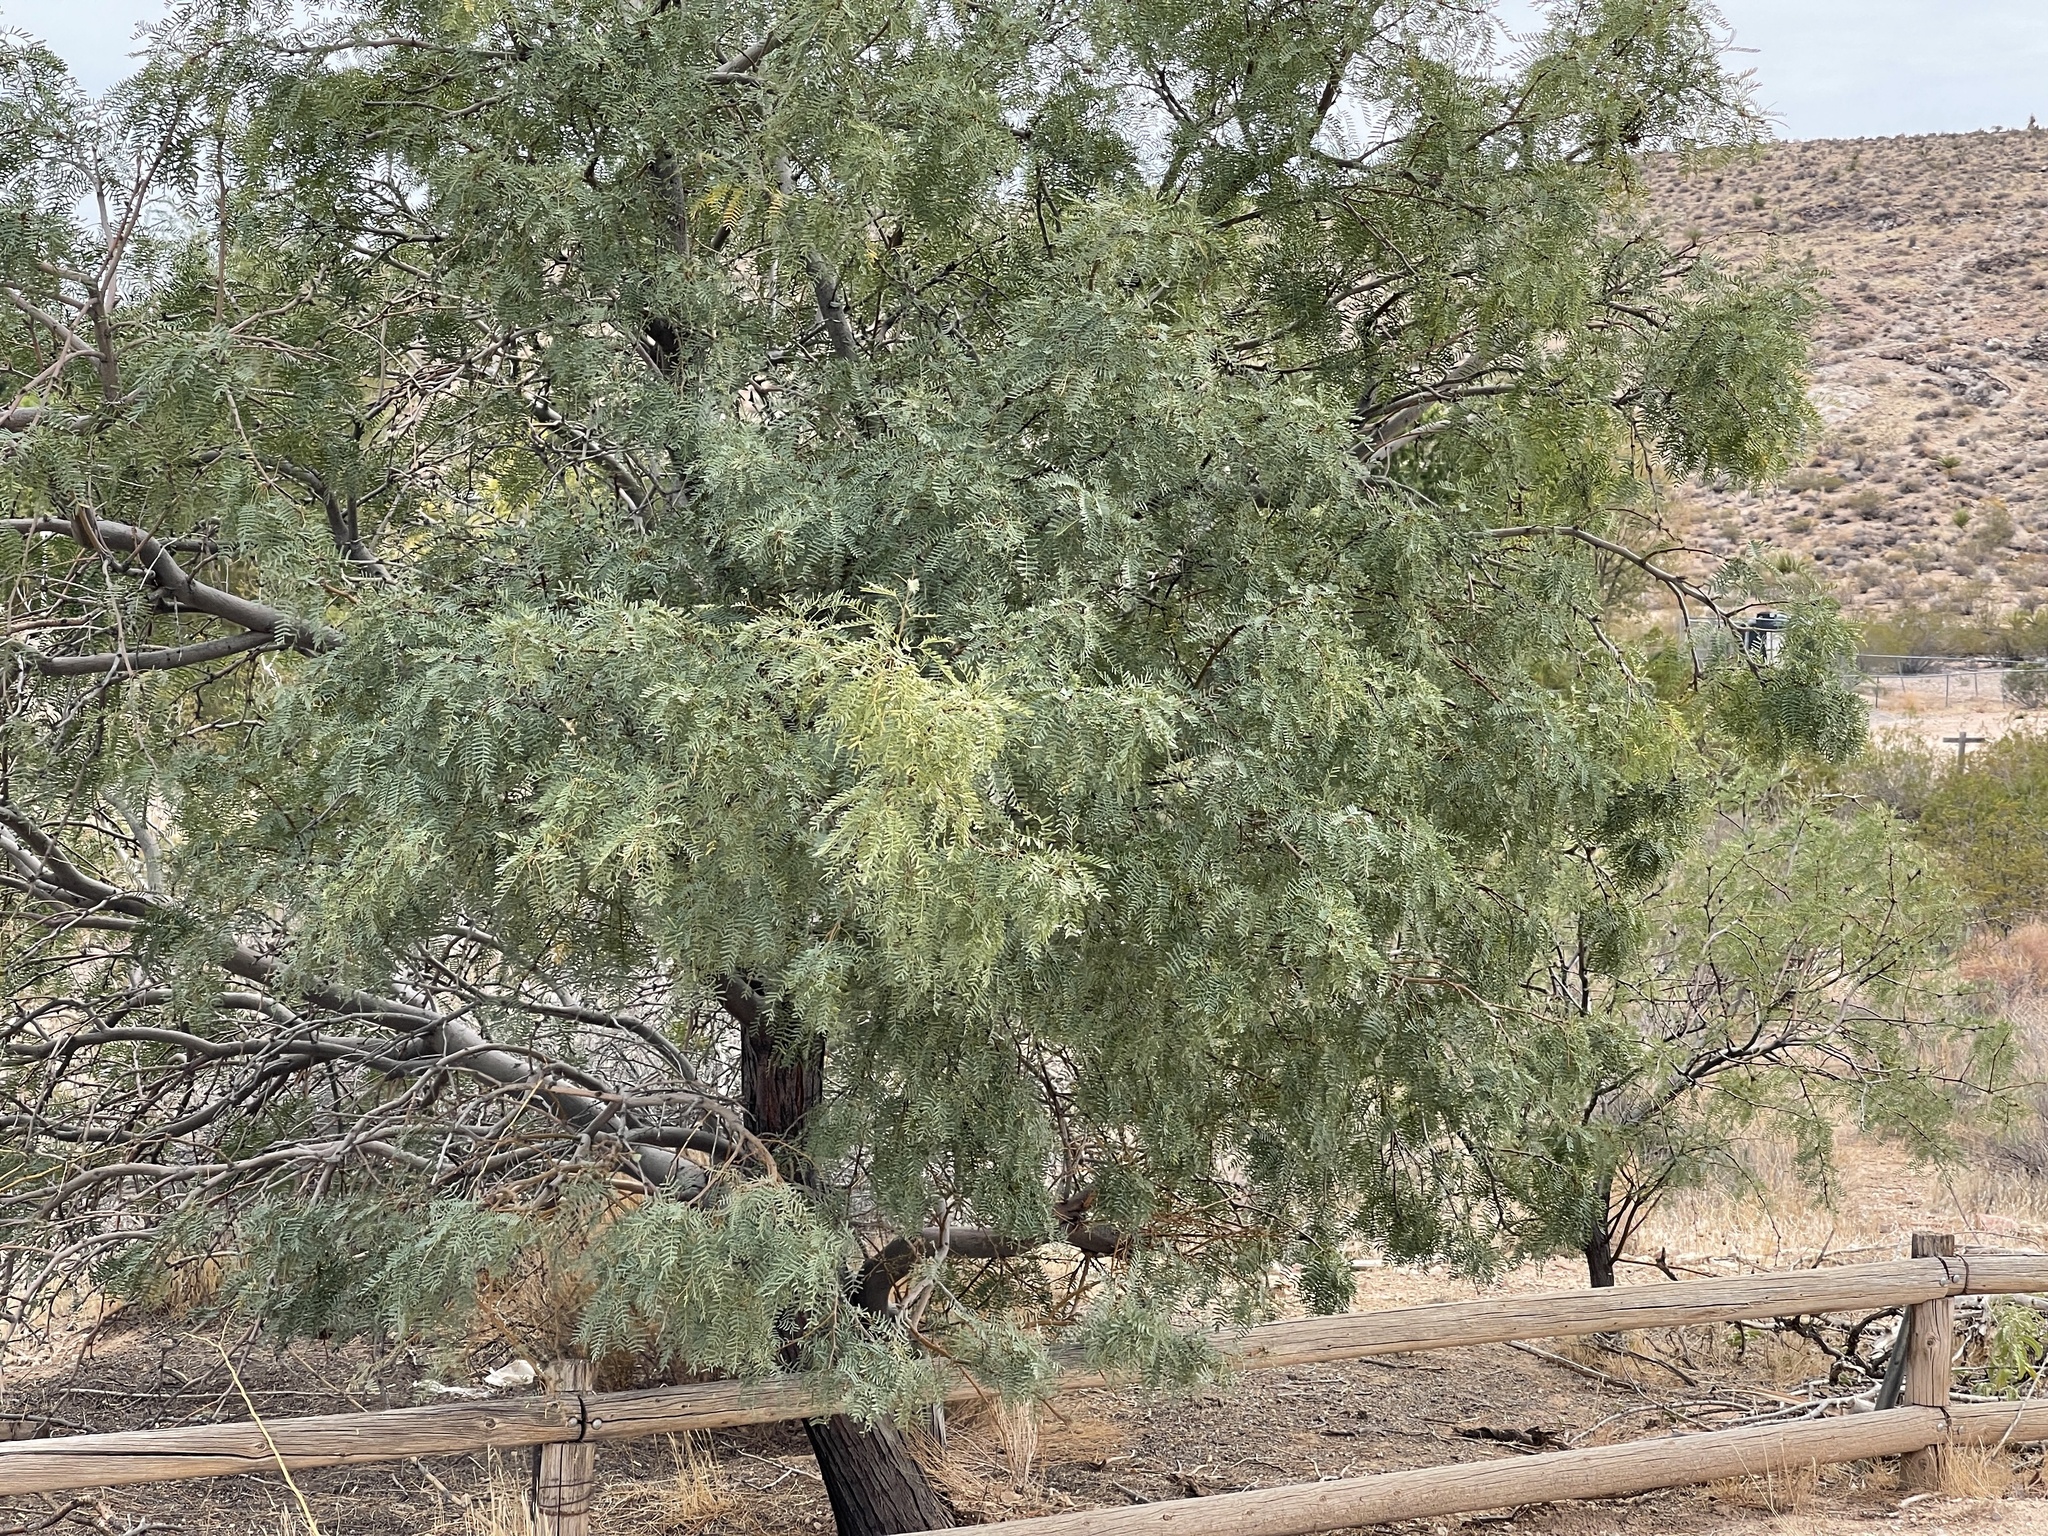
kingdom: Plantae
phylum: Tracheophyta
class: Magnoliopsida
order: Fabales
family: Fabaceae
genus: Prosopis
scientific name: Prosopis pubescens
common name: Screw-bean
